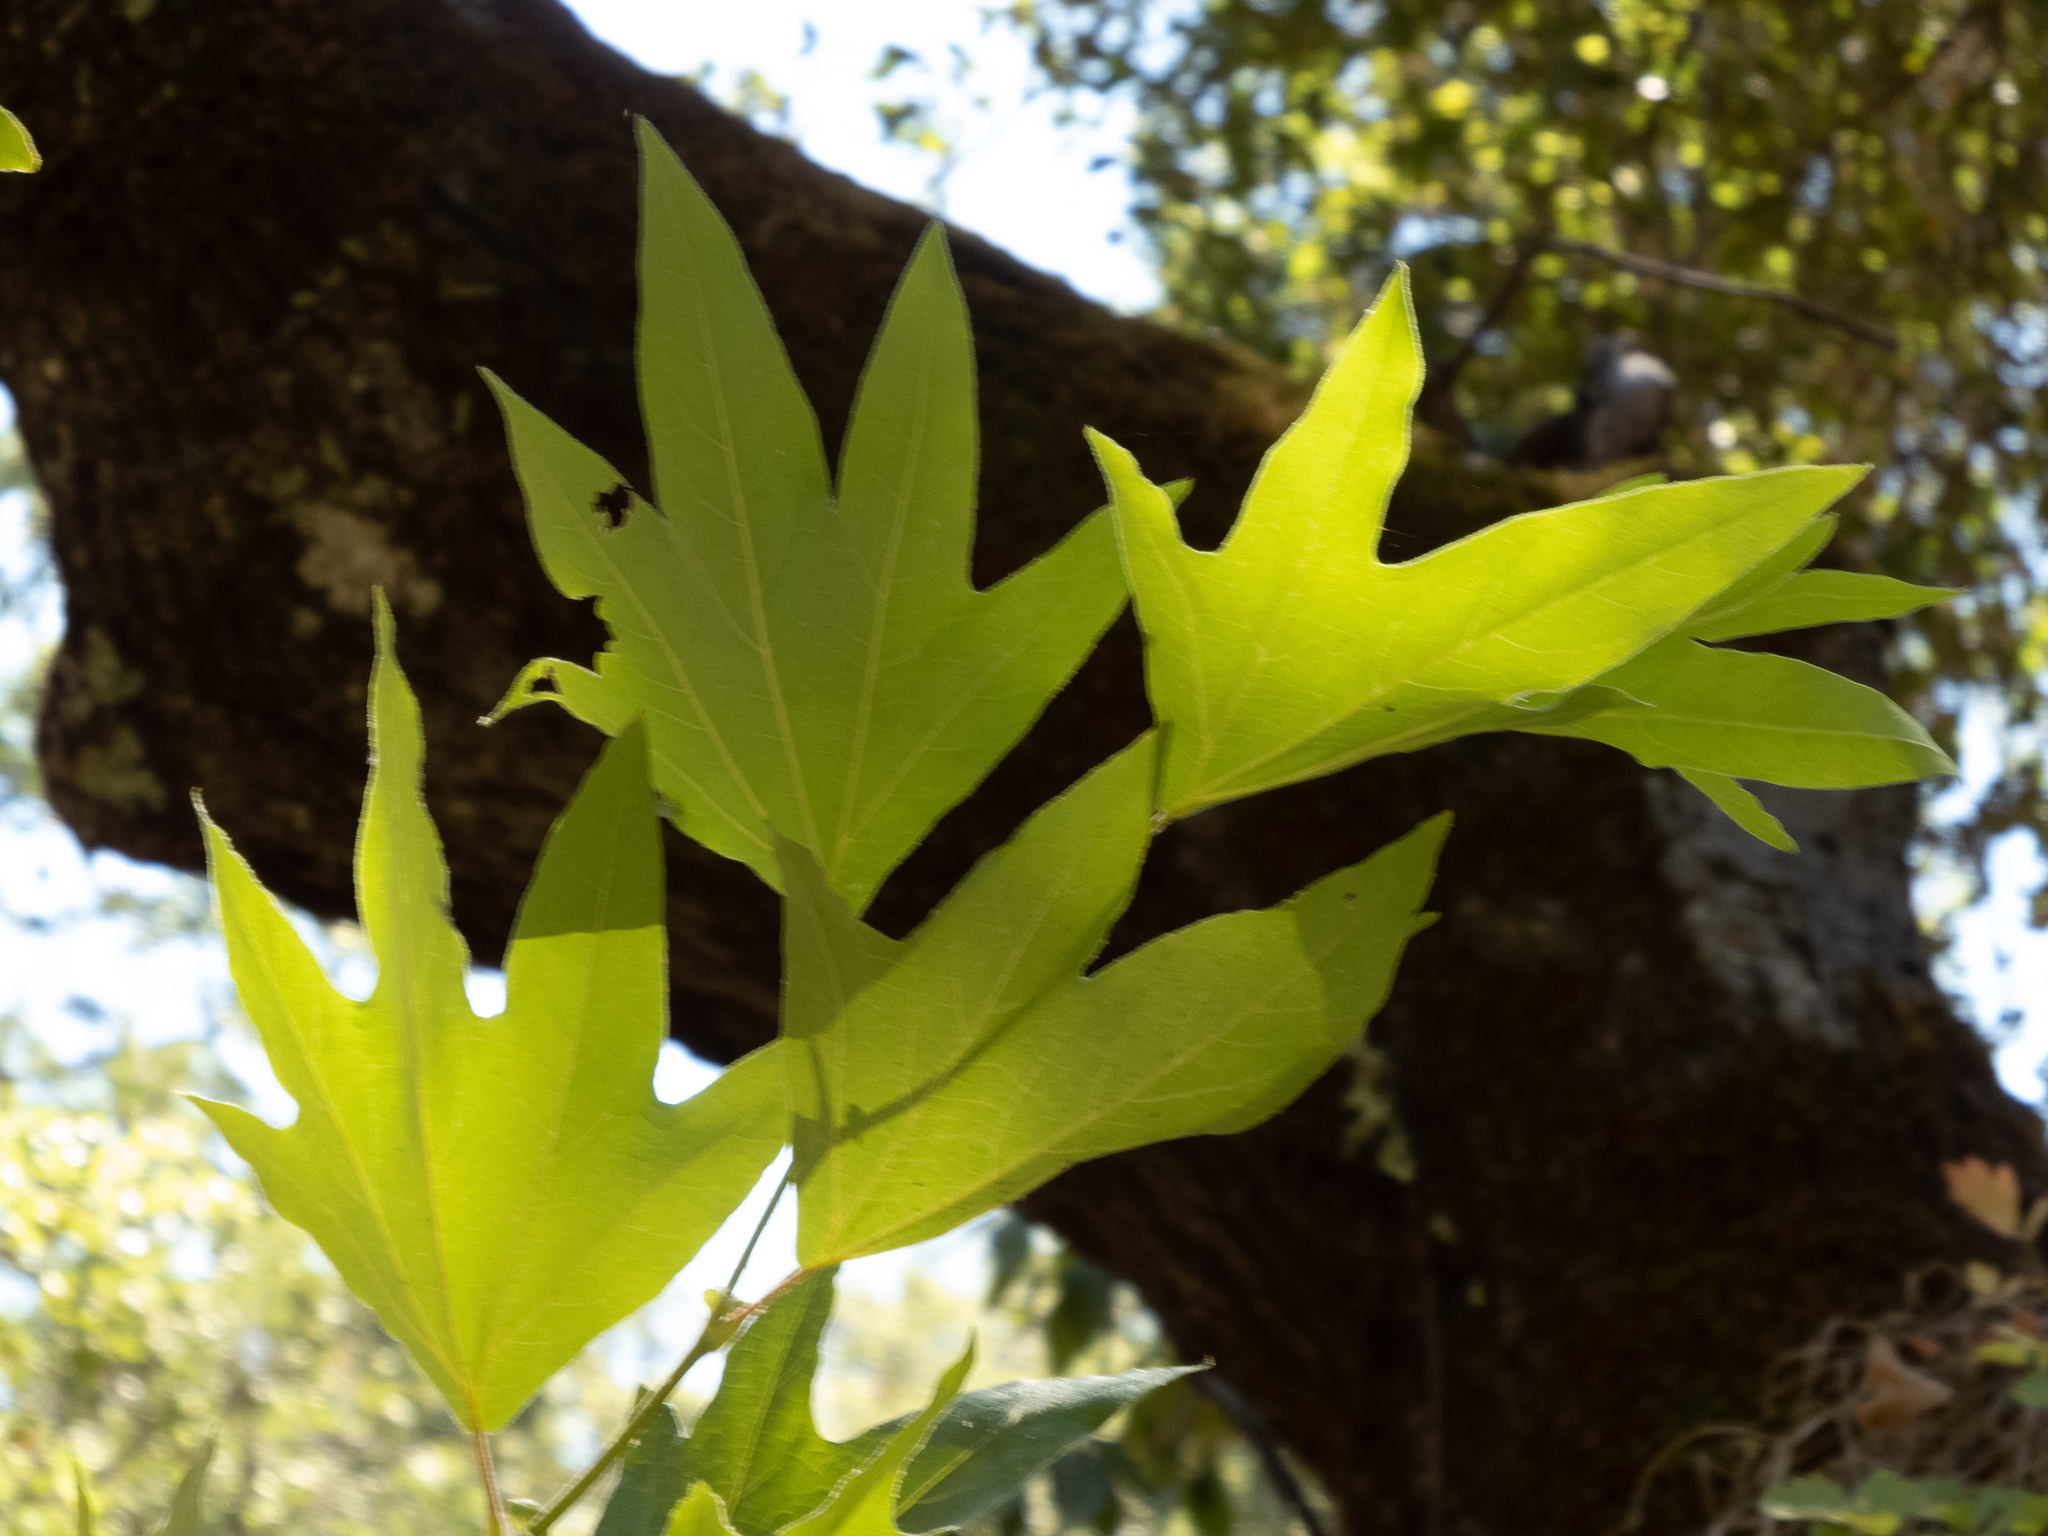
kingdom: Plantae
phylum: Tracheophyta
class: Magnoliopsida
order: Proteales
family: Platanaceae
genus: Platanus
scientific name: Platanus racemosa
